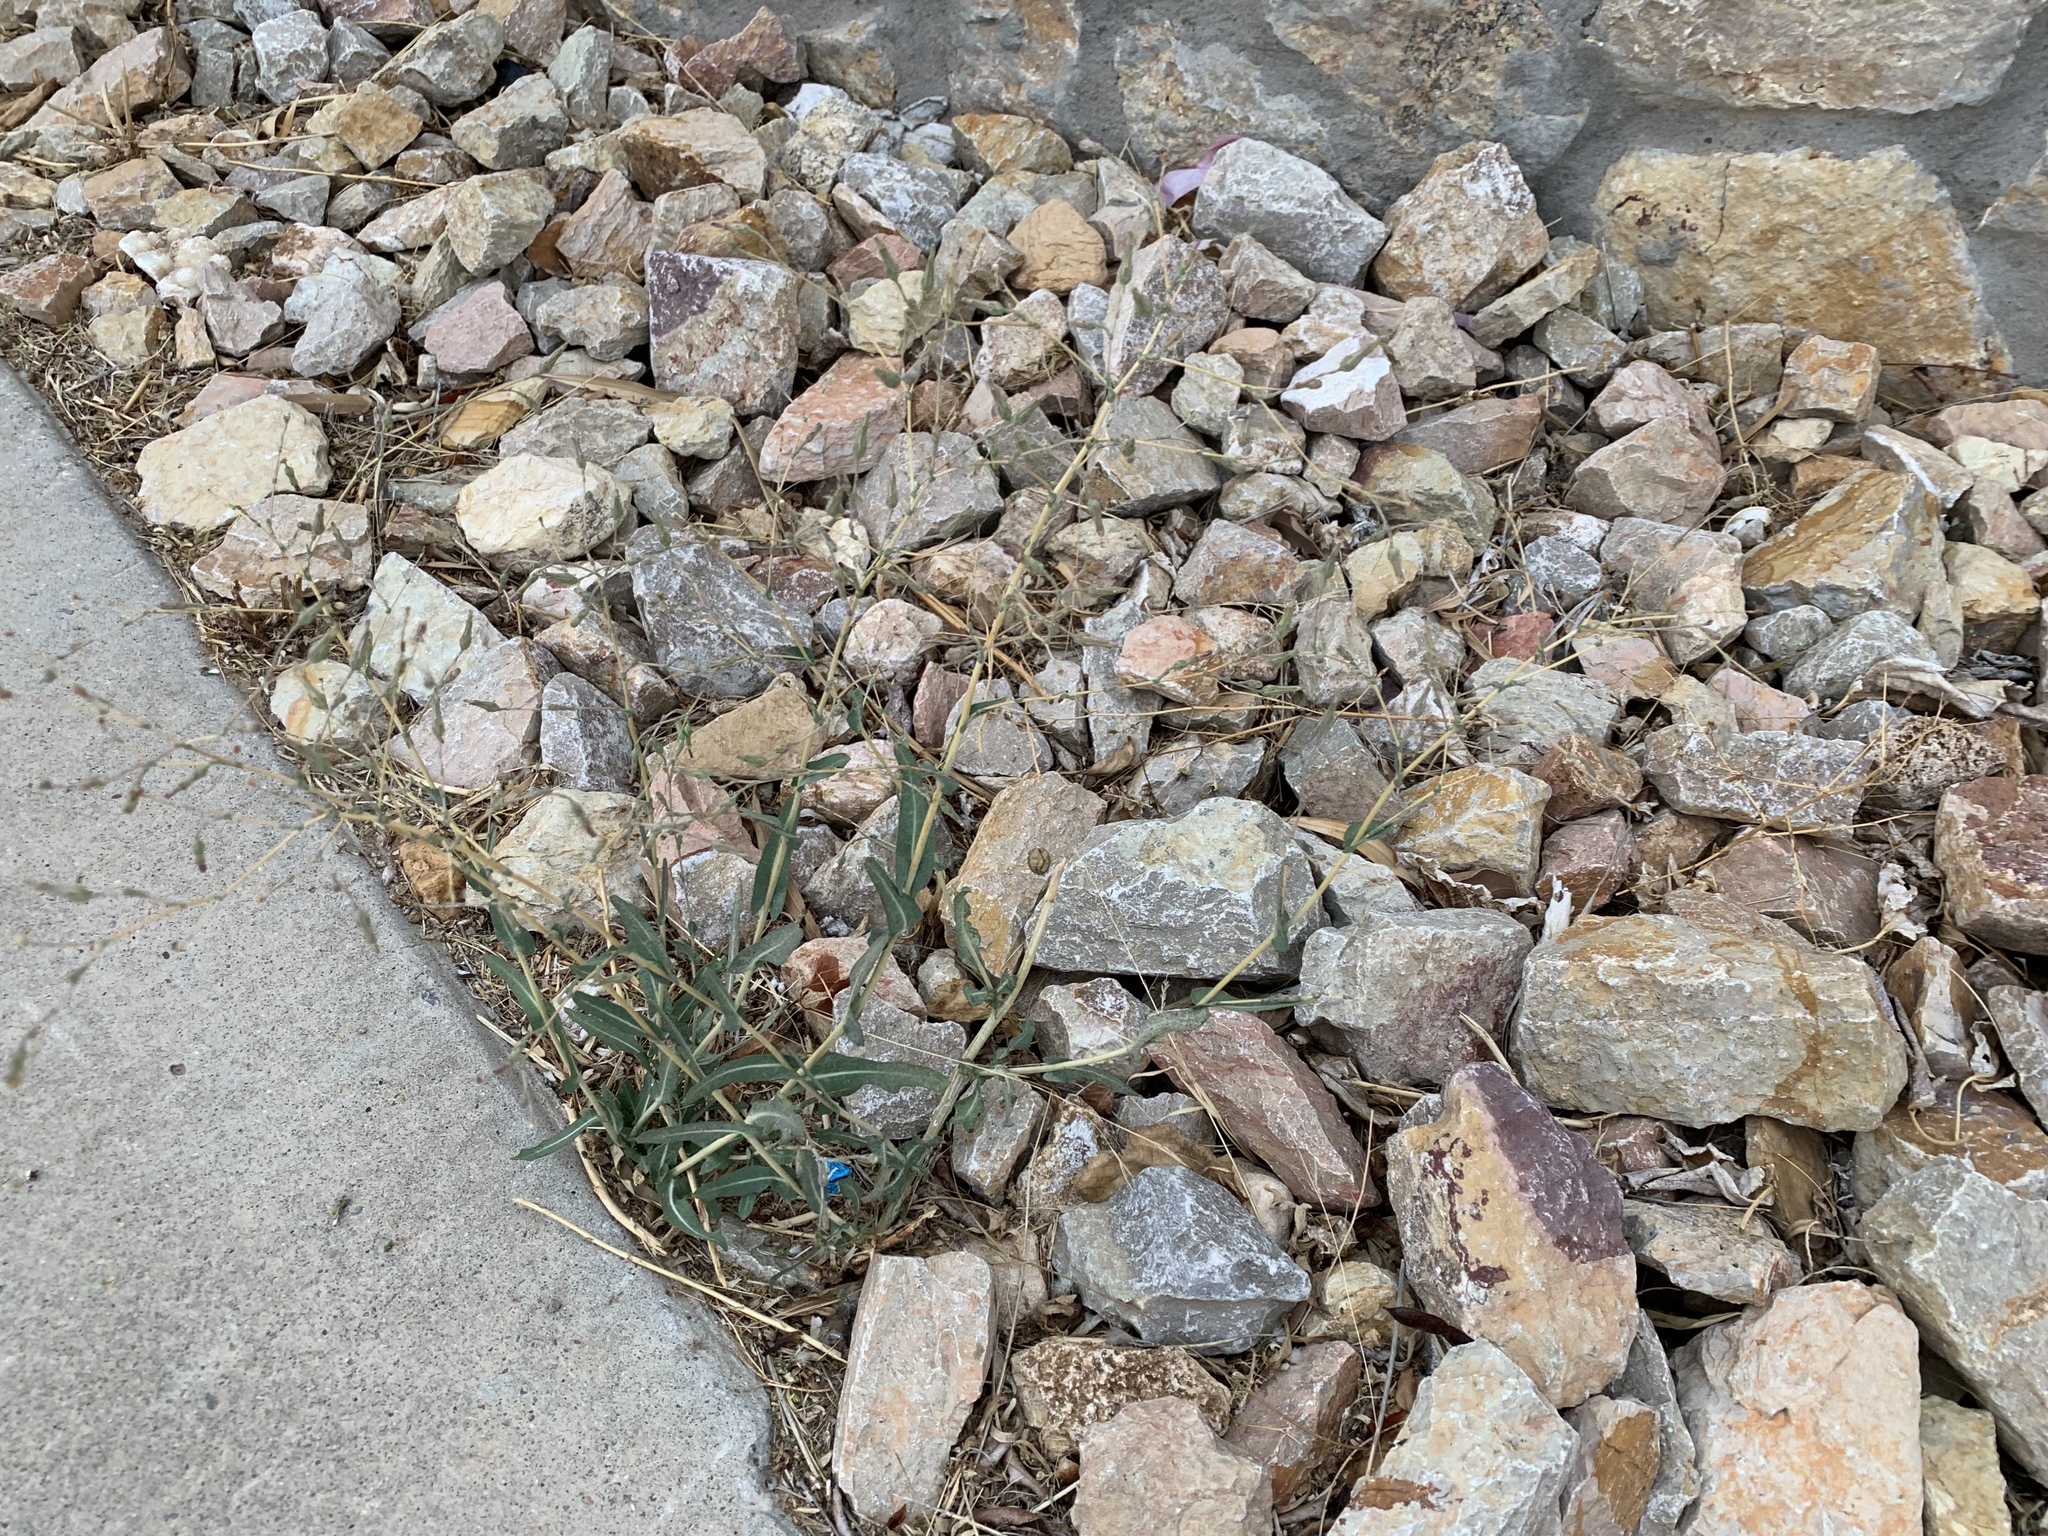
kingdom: Plantae
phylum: Tracheophyta
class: Magnoliopsida
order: Asterales
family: Asteraceae
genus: Lactuca
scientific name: Lactuca serriola
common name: Prickly lettuce
